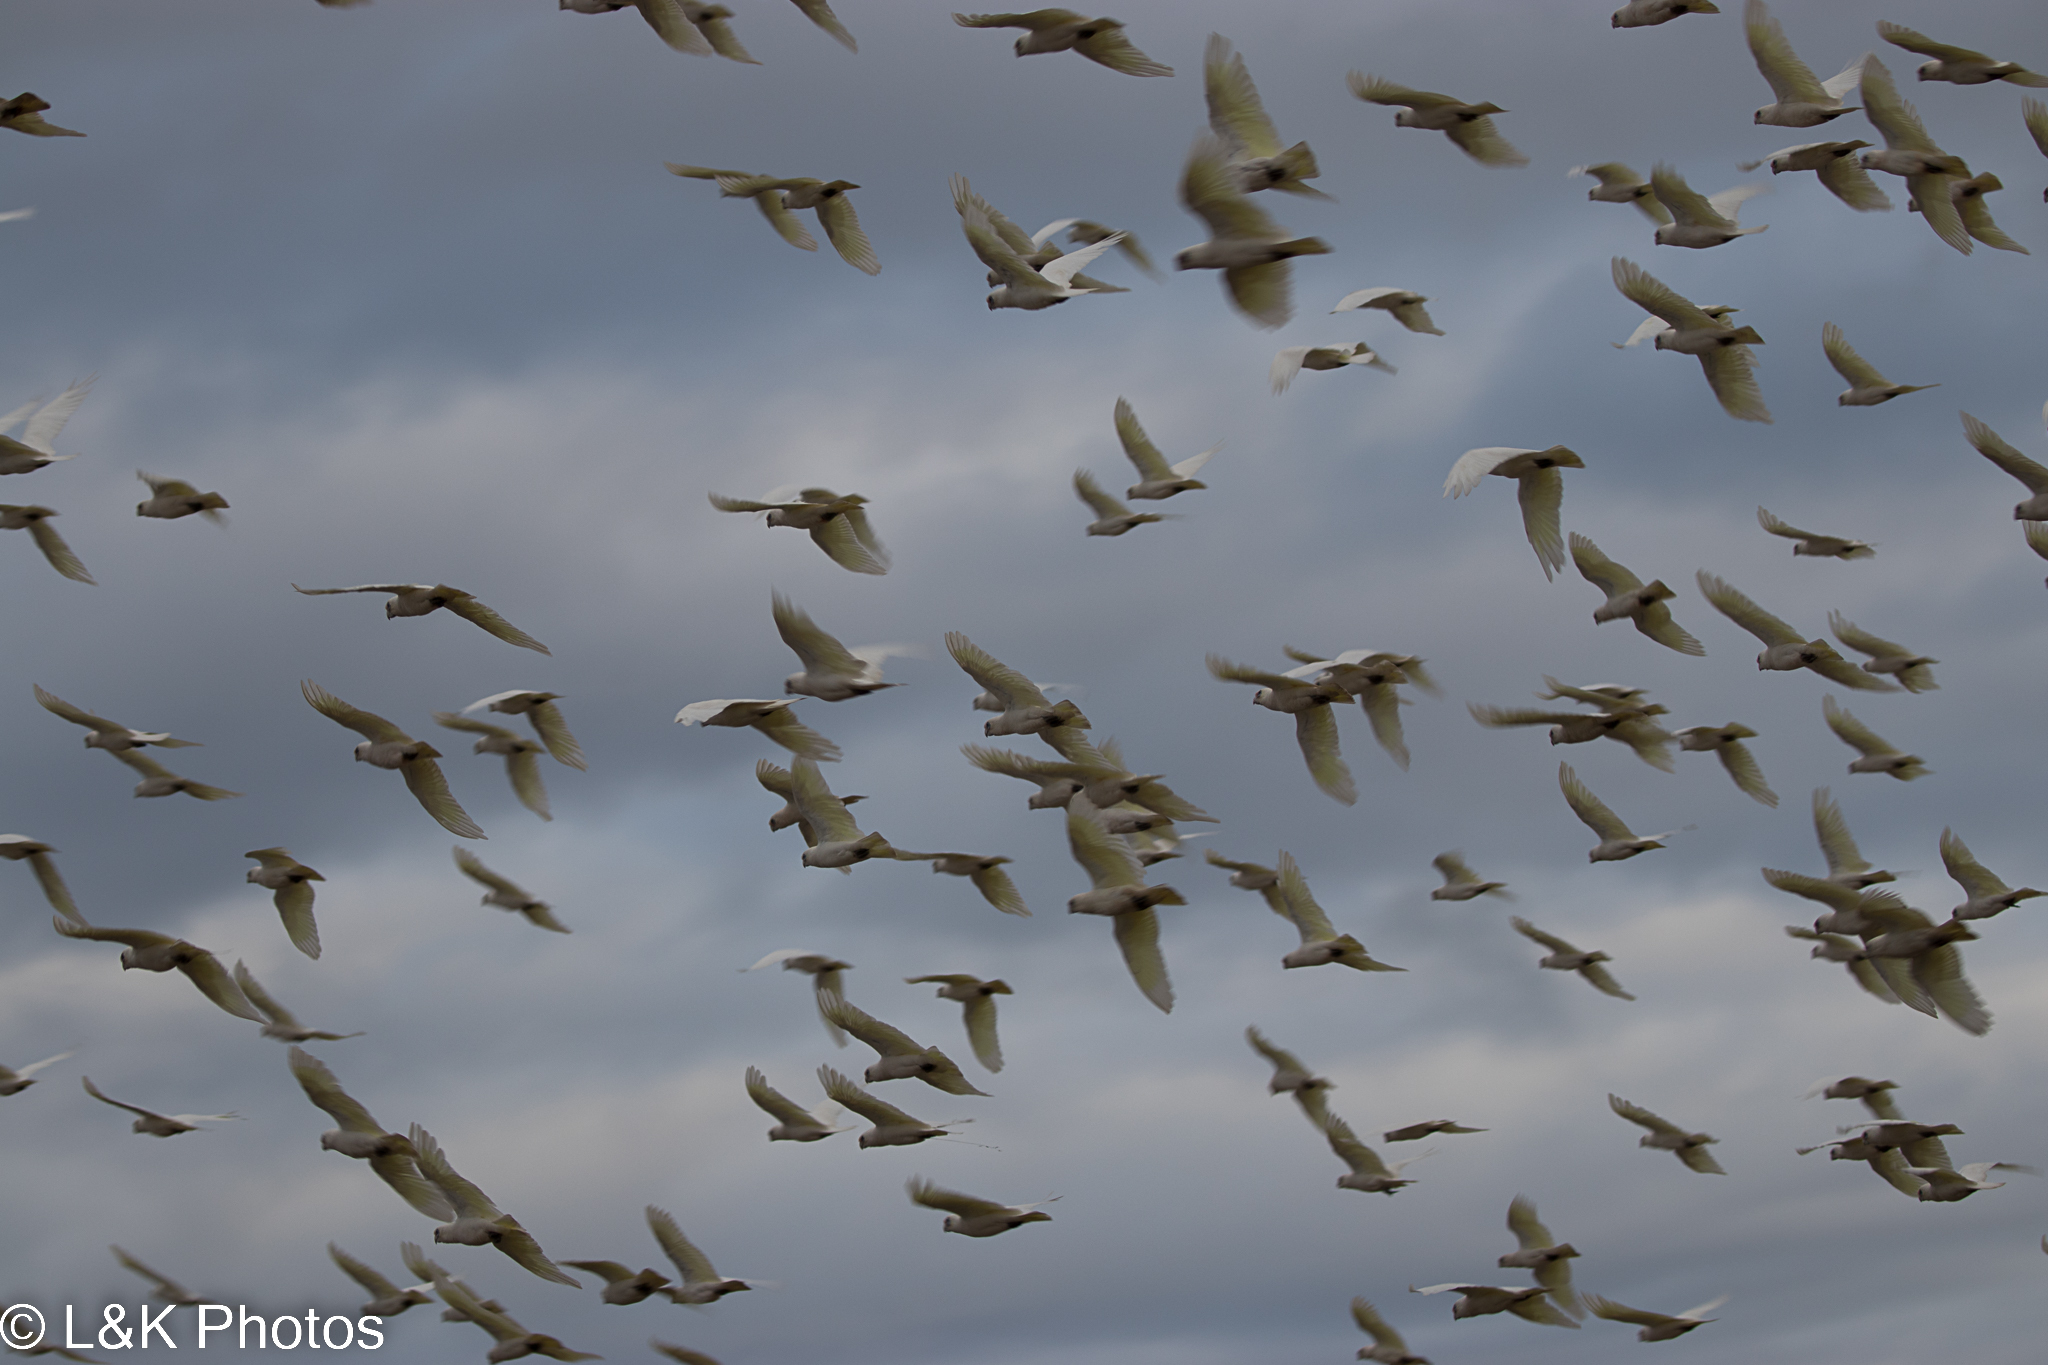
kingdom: Animalia
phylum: Chordata
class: Aves
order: Psittaciformes
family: Psittacidae
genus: Cacatua
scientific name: Cacatua sanguinea
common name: Little corella
